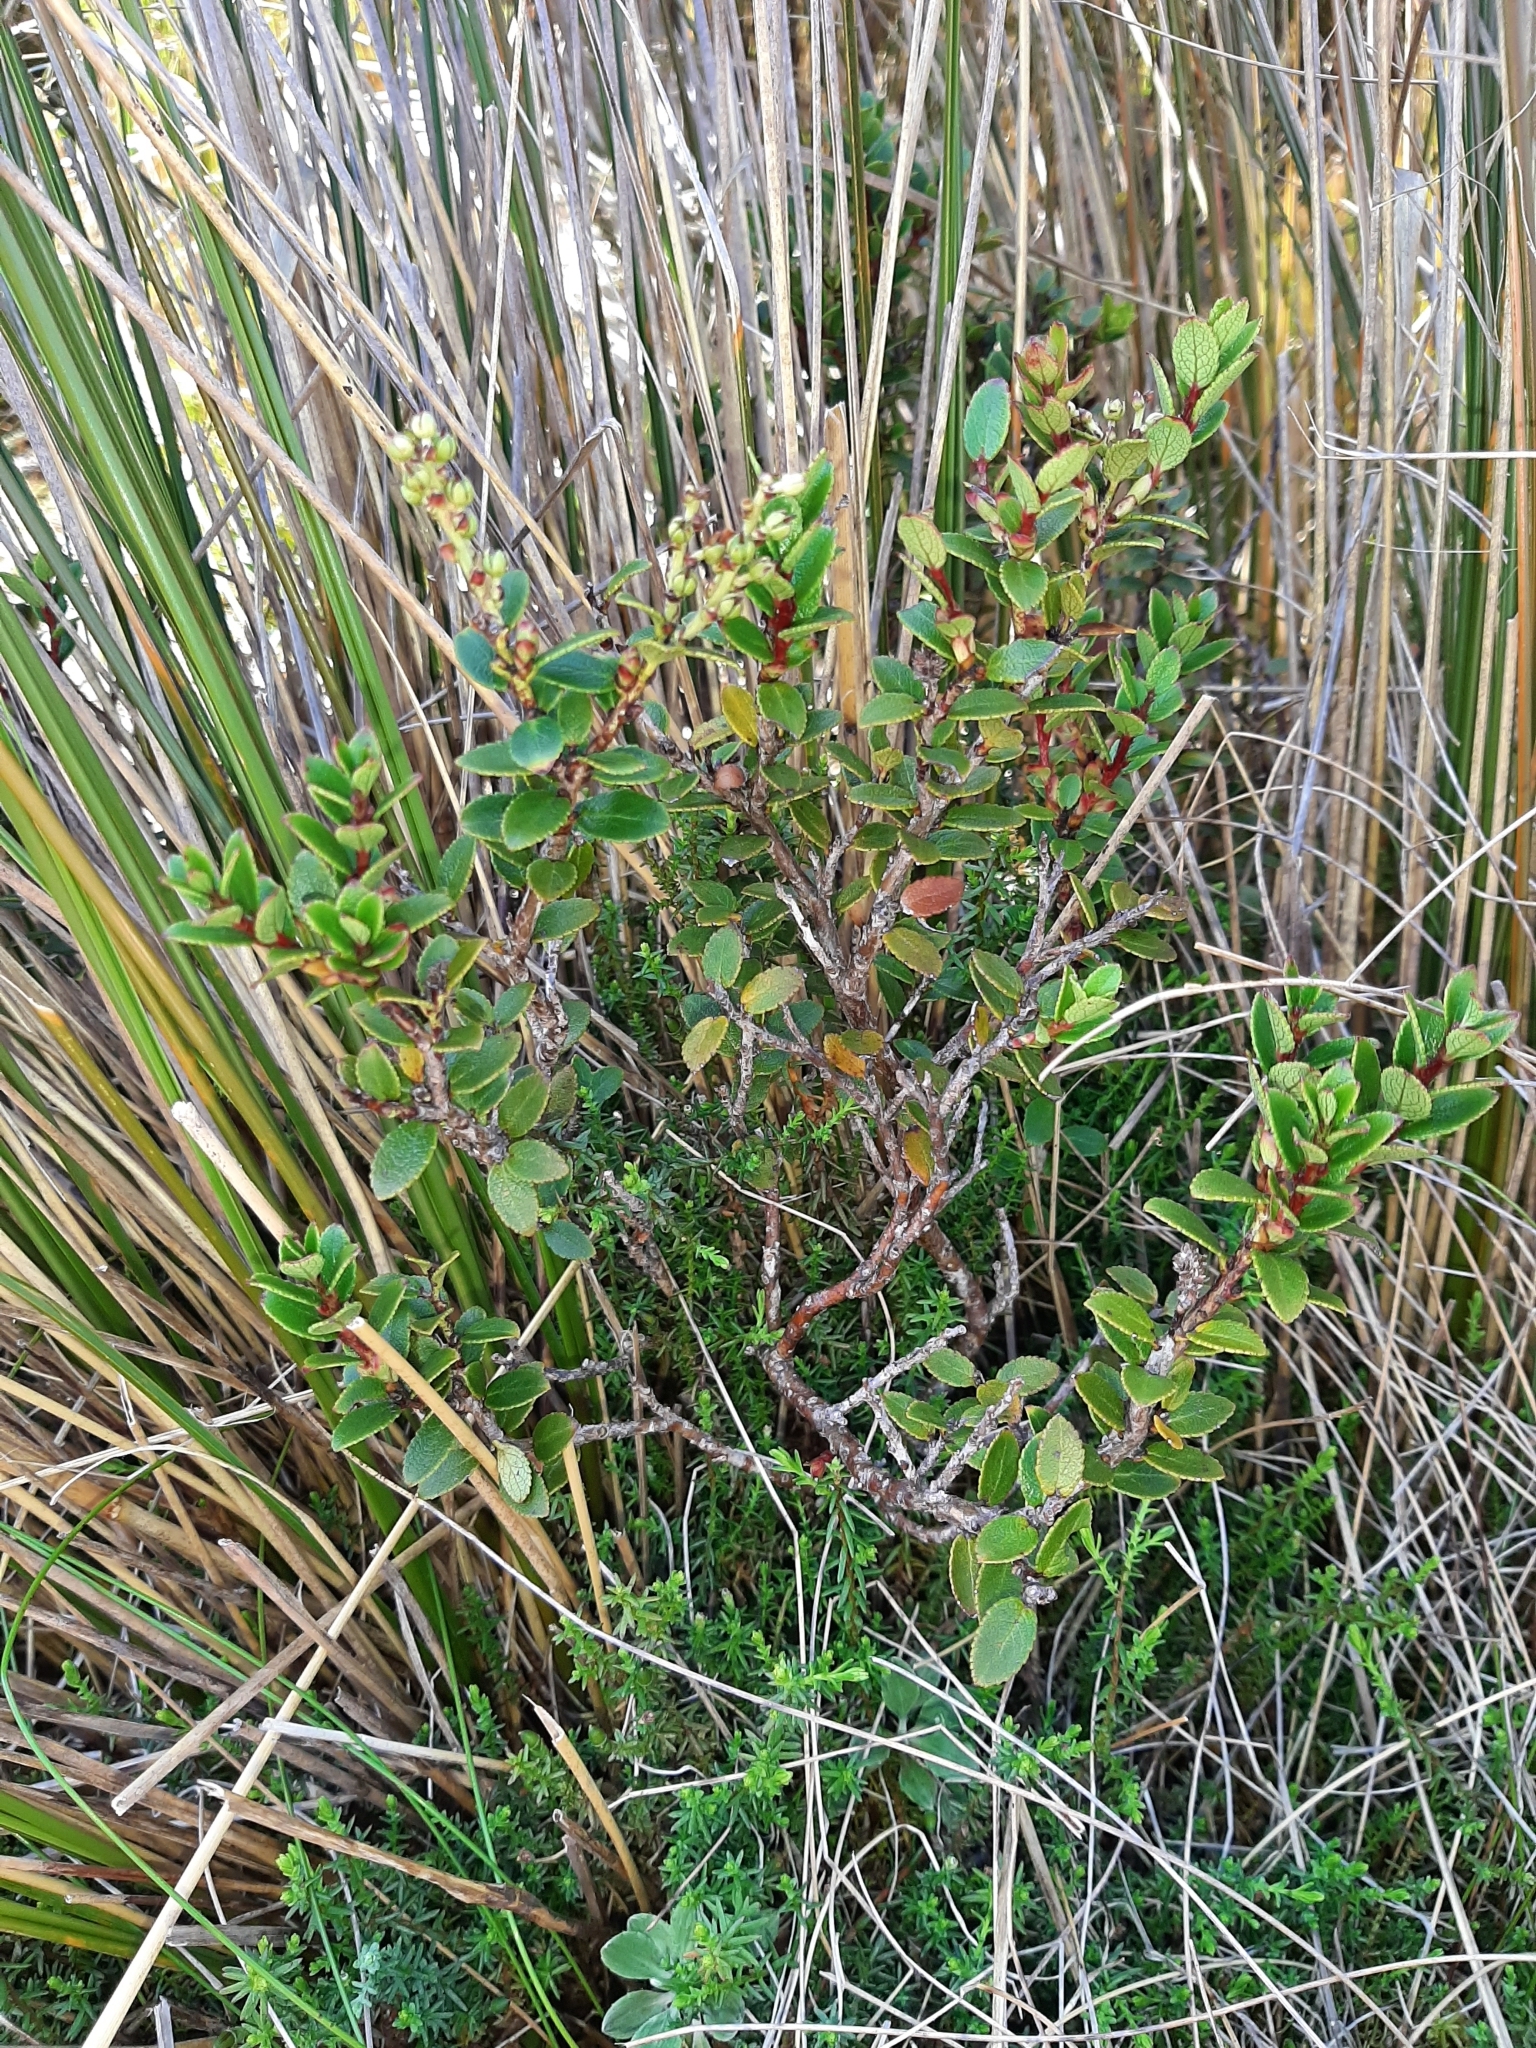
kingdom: Plantae
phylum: Tracheophyta
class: Magnoliopsida
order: Ericales
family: Ericaceae
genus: Gaultheria
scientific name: Gaultheria crassa
